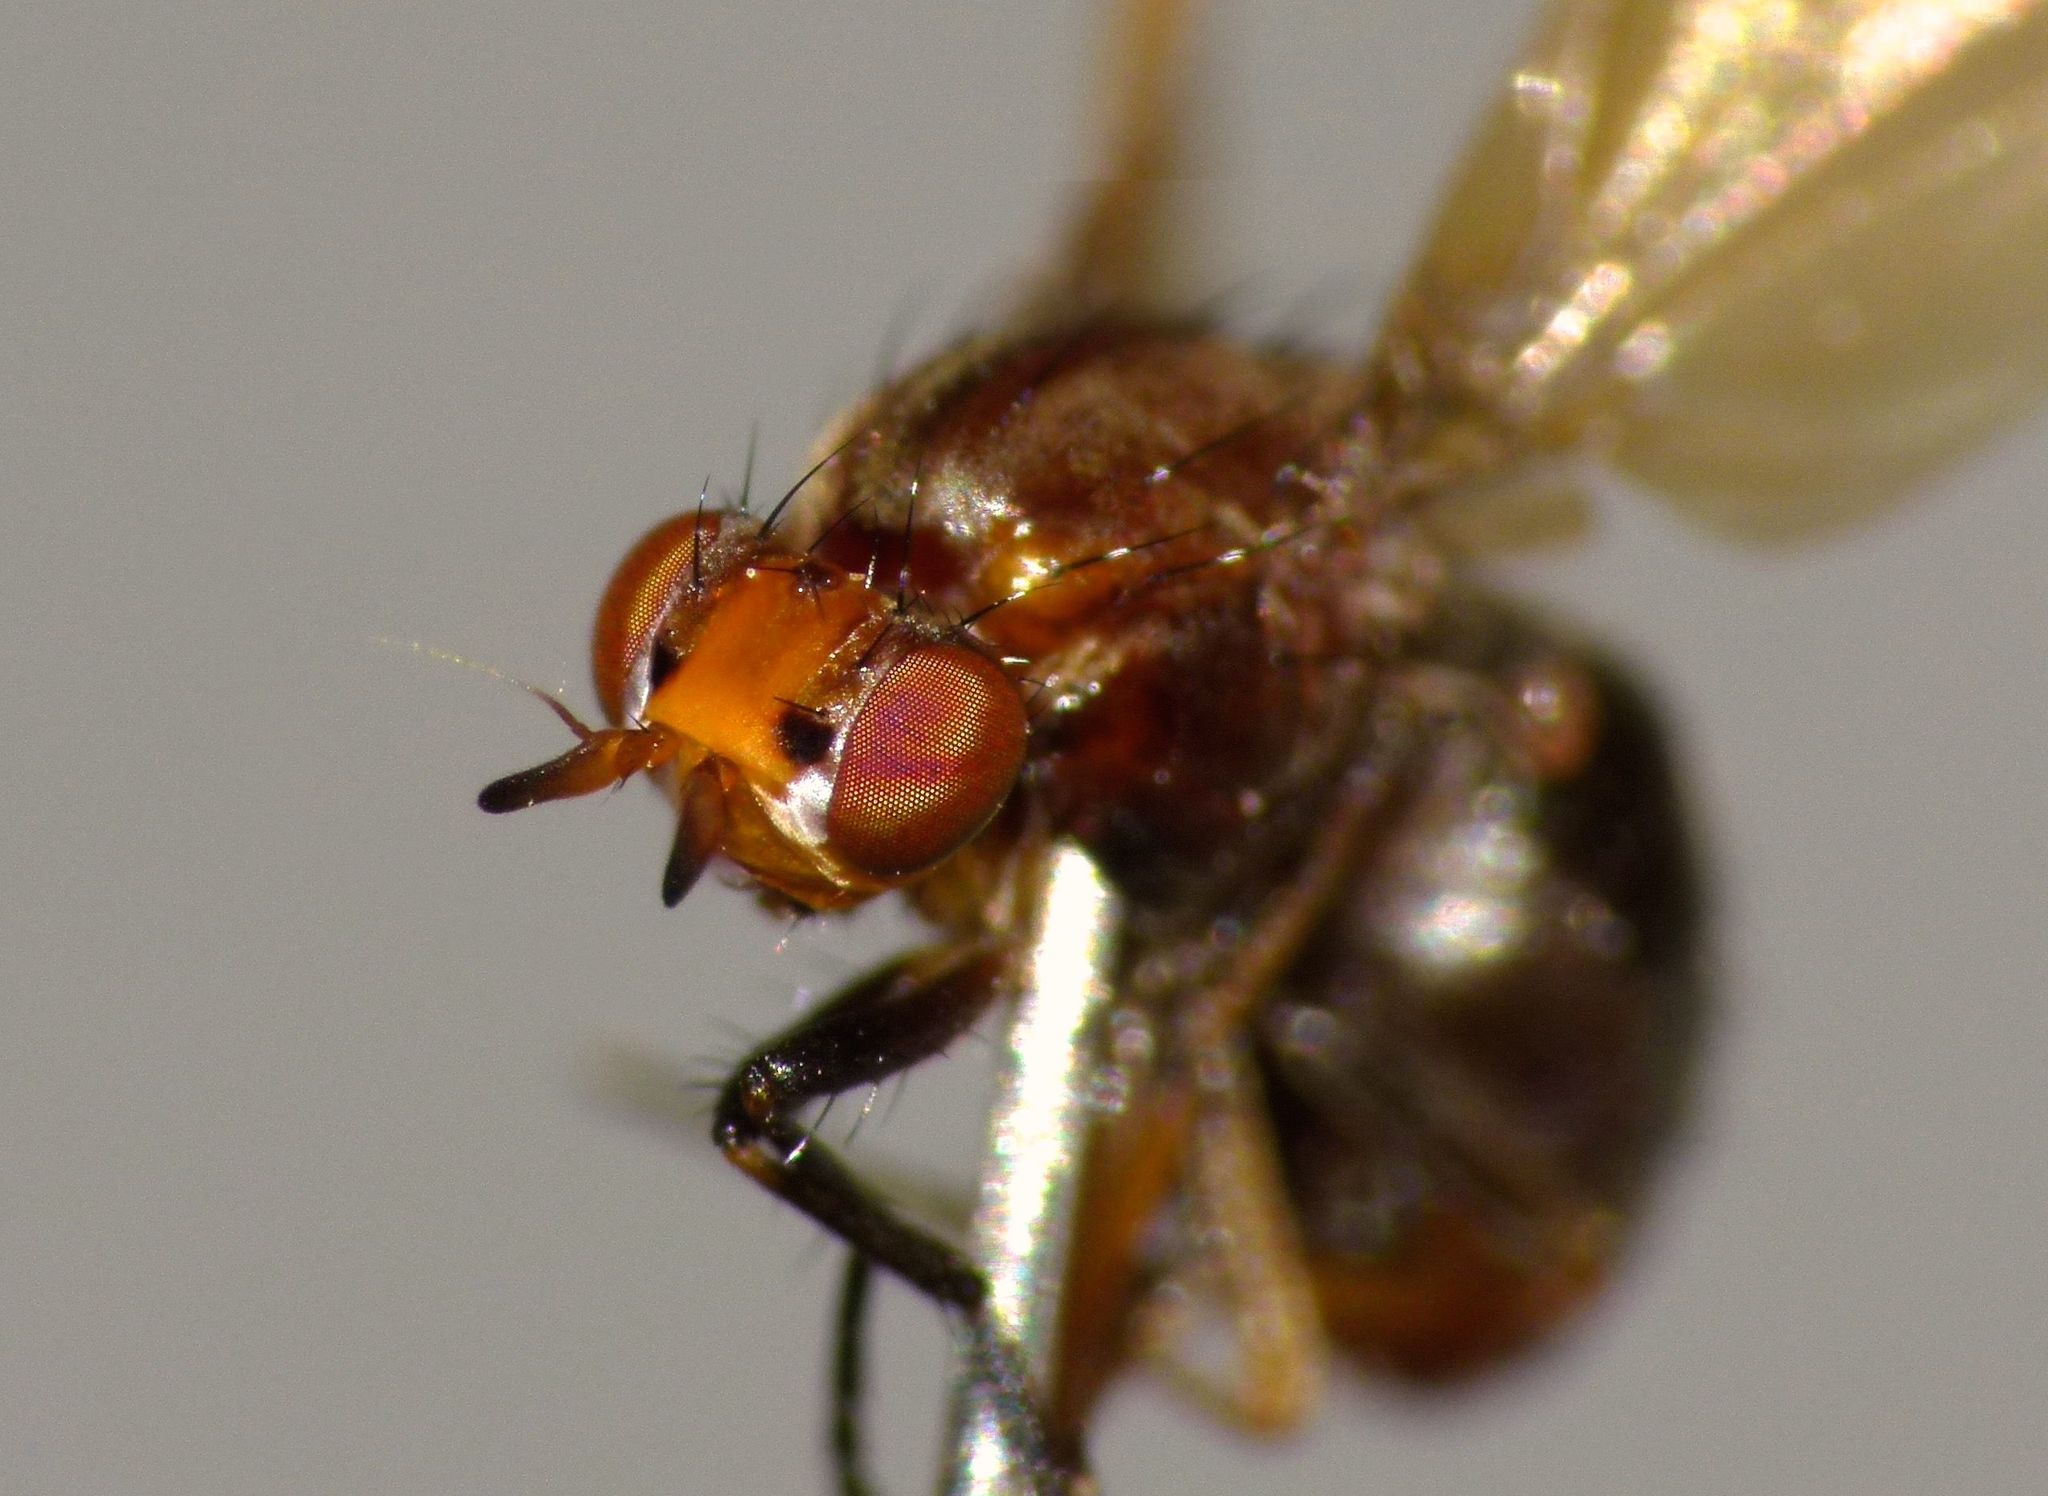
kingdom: Animalia
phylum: Arthropoda
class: Insecta
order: Diptera
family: Lauxaniidae
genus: Poecilohetaerella
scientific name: Poecilohetaerella punctatifrons
